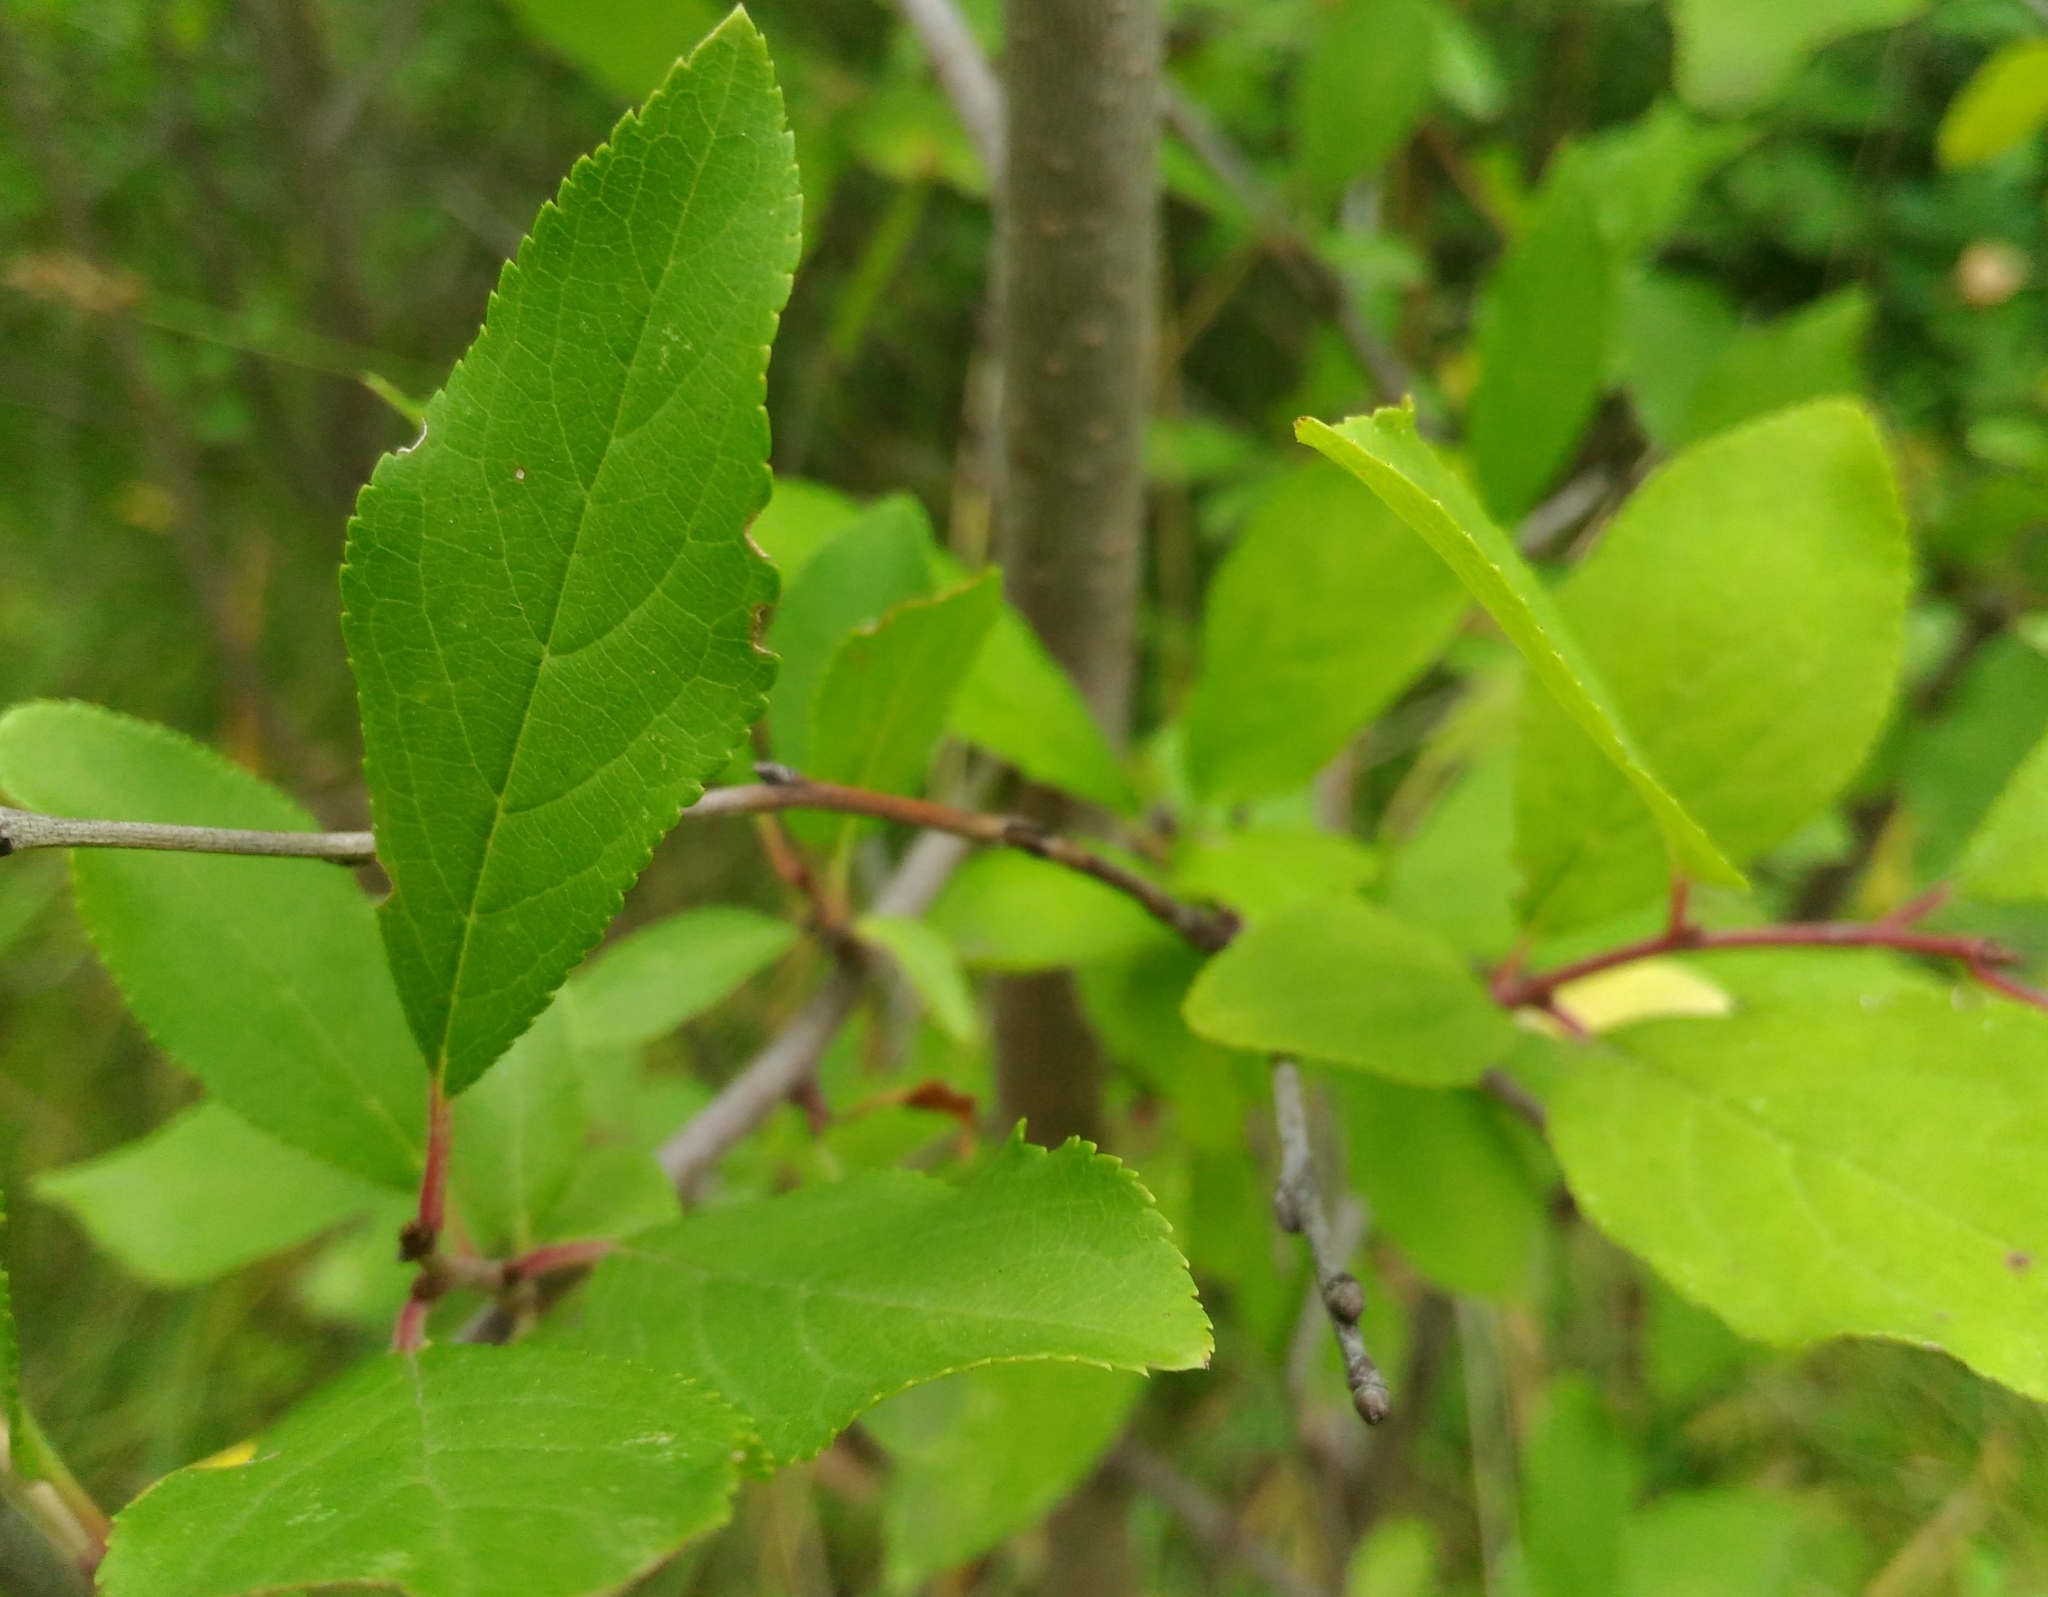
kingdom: Plantae
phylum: Tracheophyta
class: Magnoliopsida
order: Rosales
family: Rosaceae
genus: Prunus
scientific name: Prunus spinosa
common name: Blackthorn
